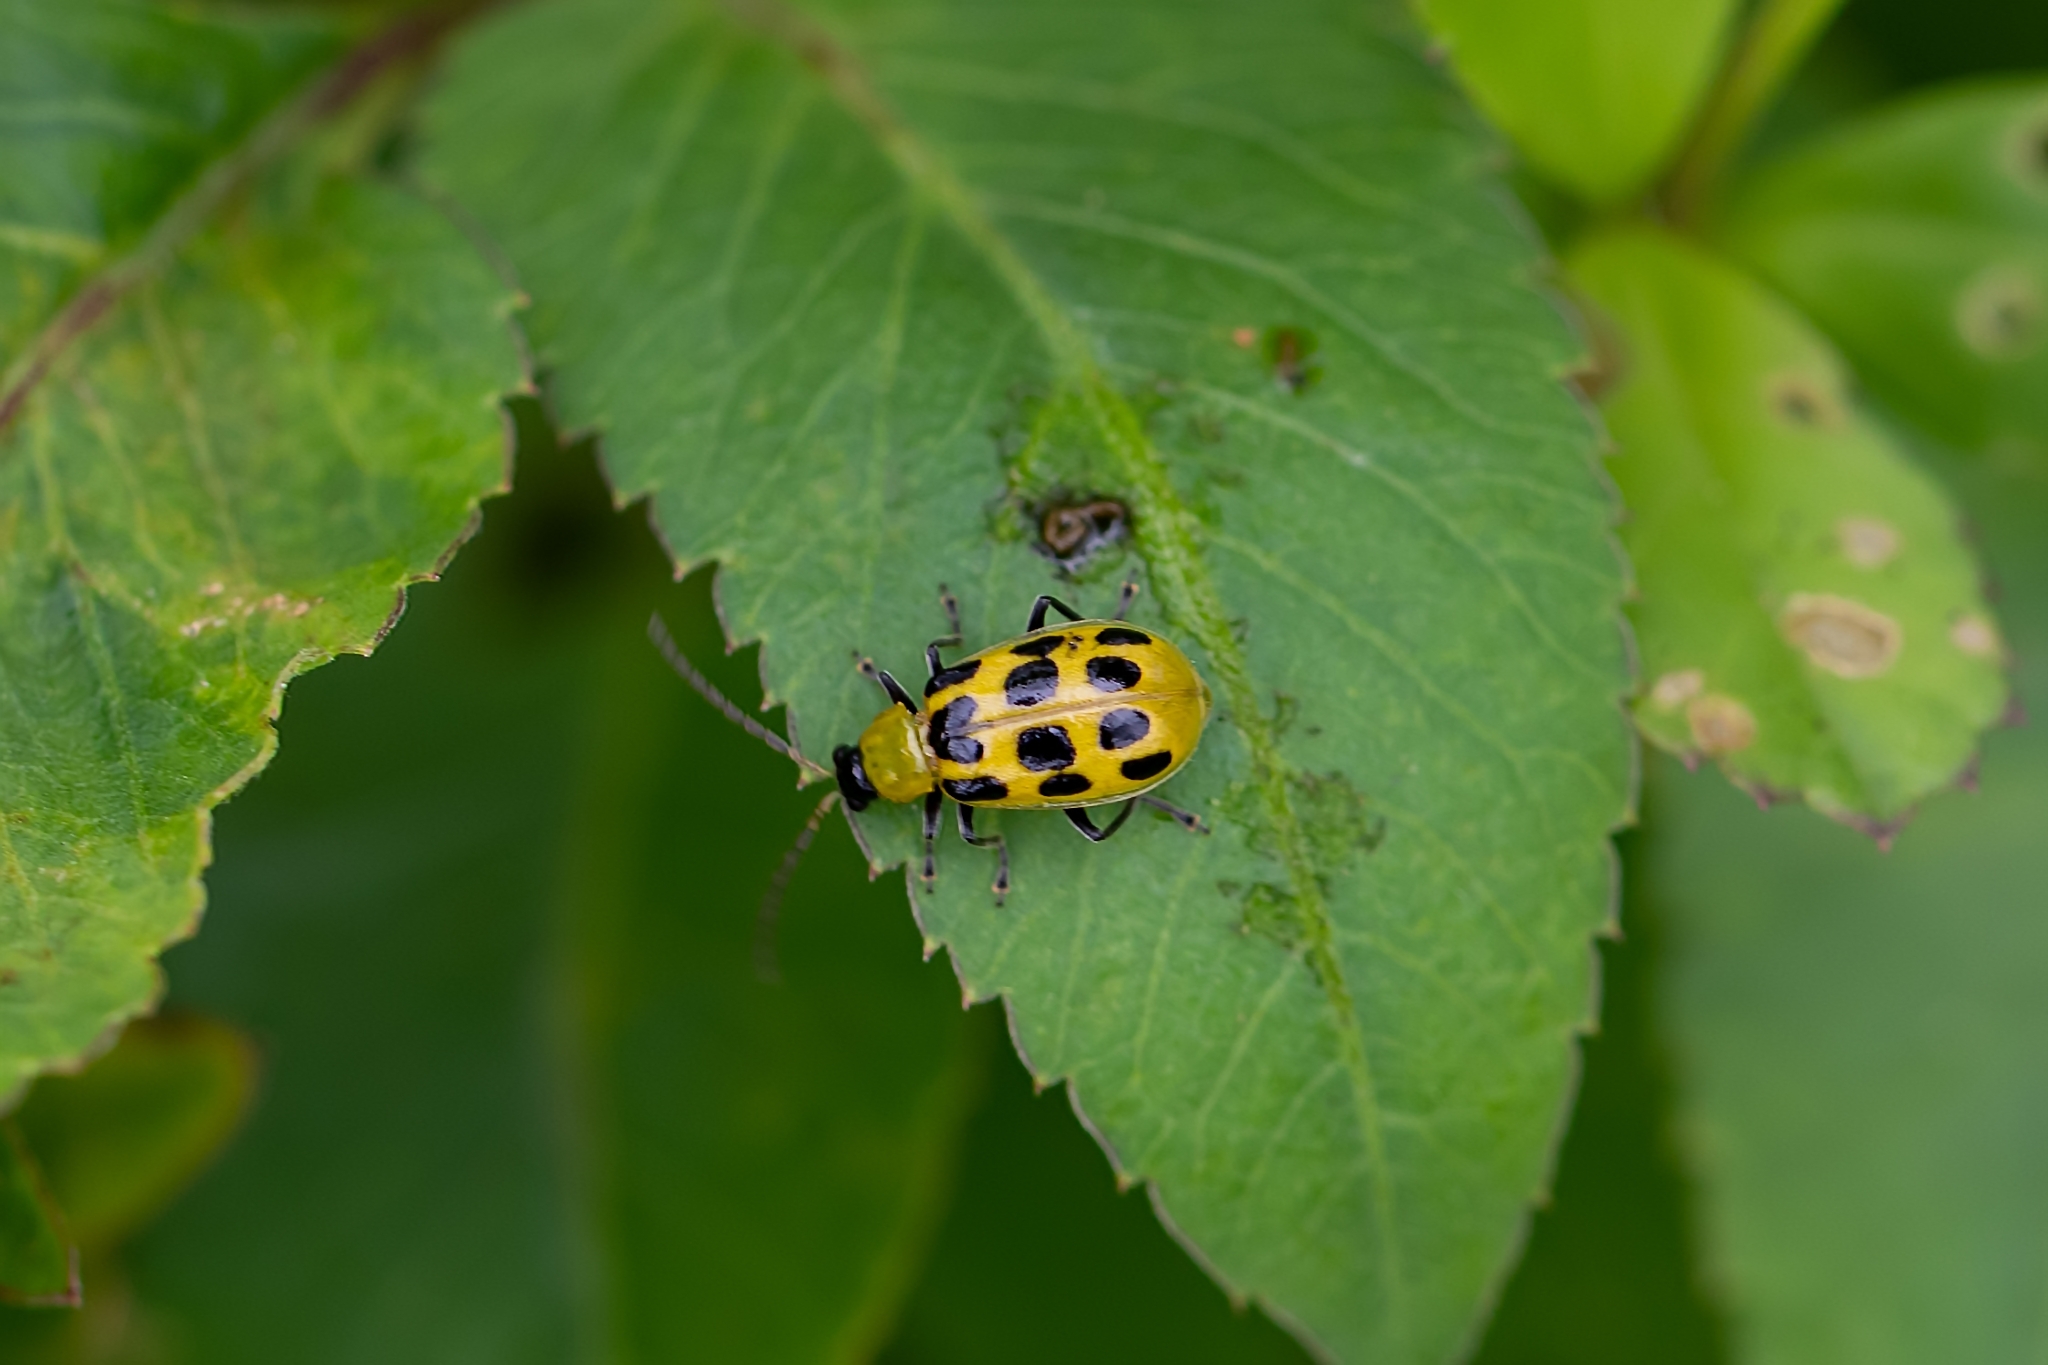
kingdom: Animalia
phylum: Arthropoda
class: Insecta
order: Coleoptera
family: Chrysomelidae
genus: Diabrotica
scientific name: Diabrotica undecimpunctata
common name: Spotted cucumber beetle
